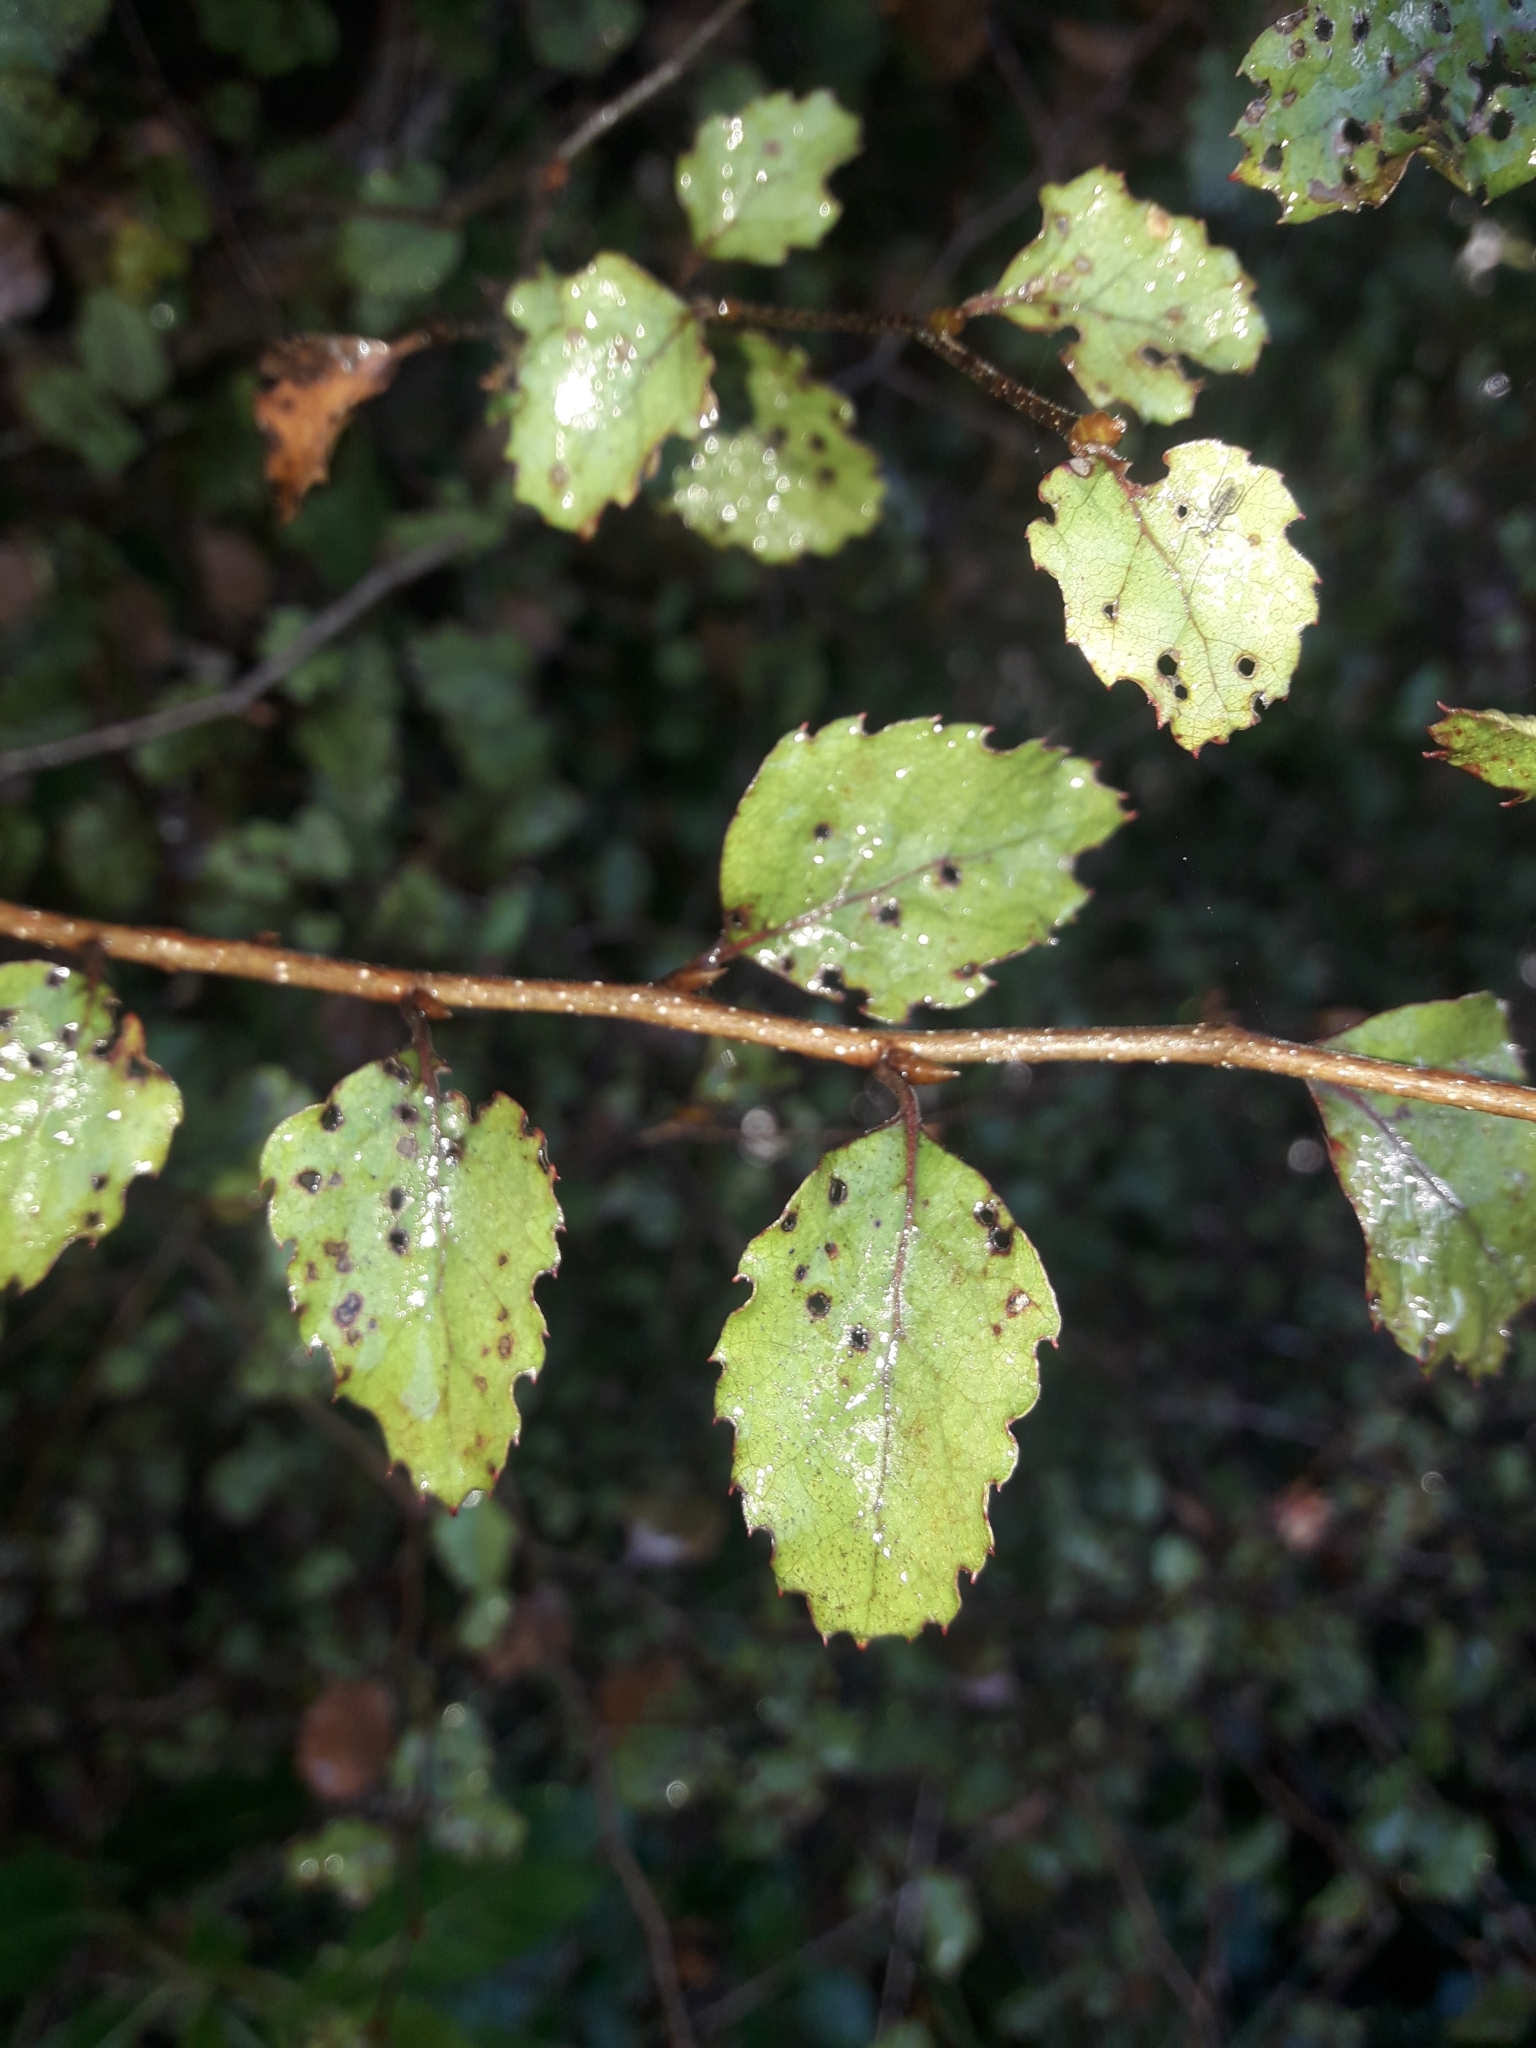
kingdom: Plantae
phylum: Tracheophyta
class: Magnoliopsida
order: Fagales
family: Nothofagaceae
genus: Nothofagus
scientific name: Nothofagus fusca
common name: Red beech
